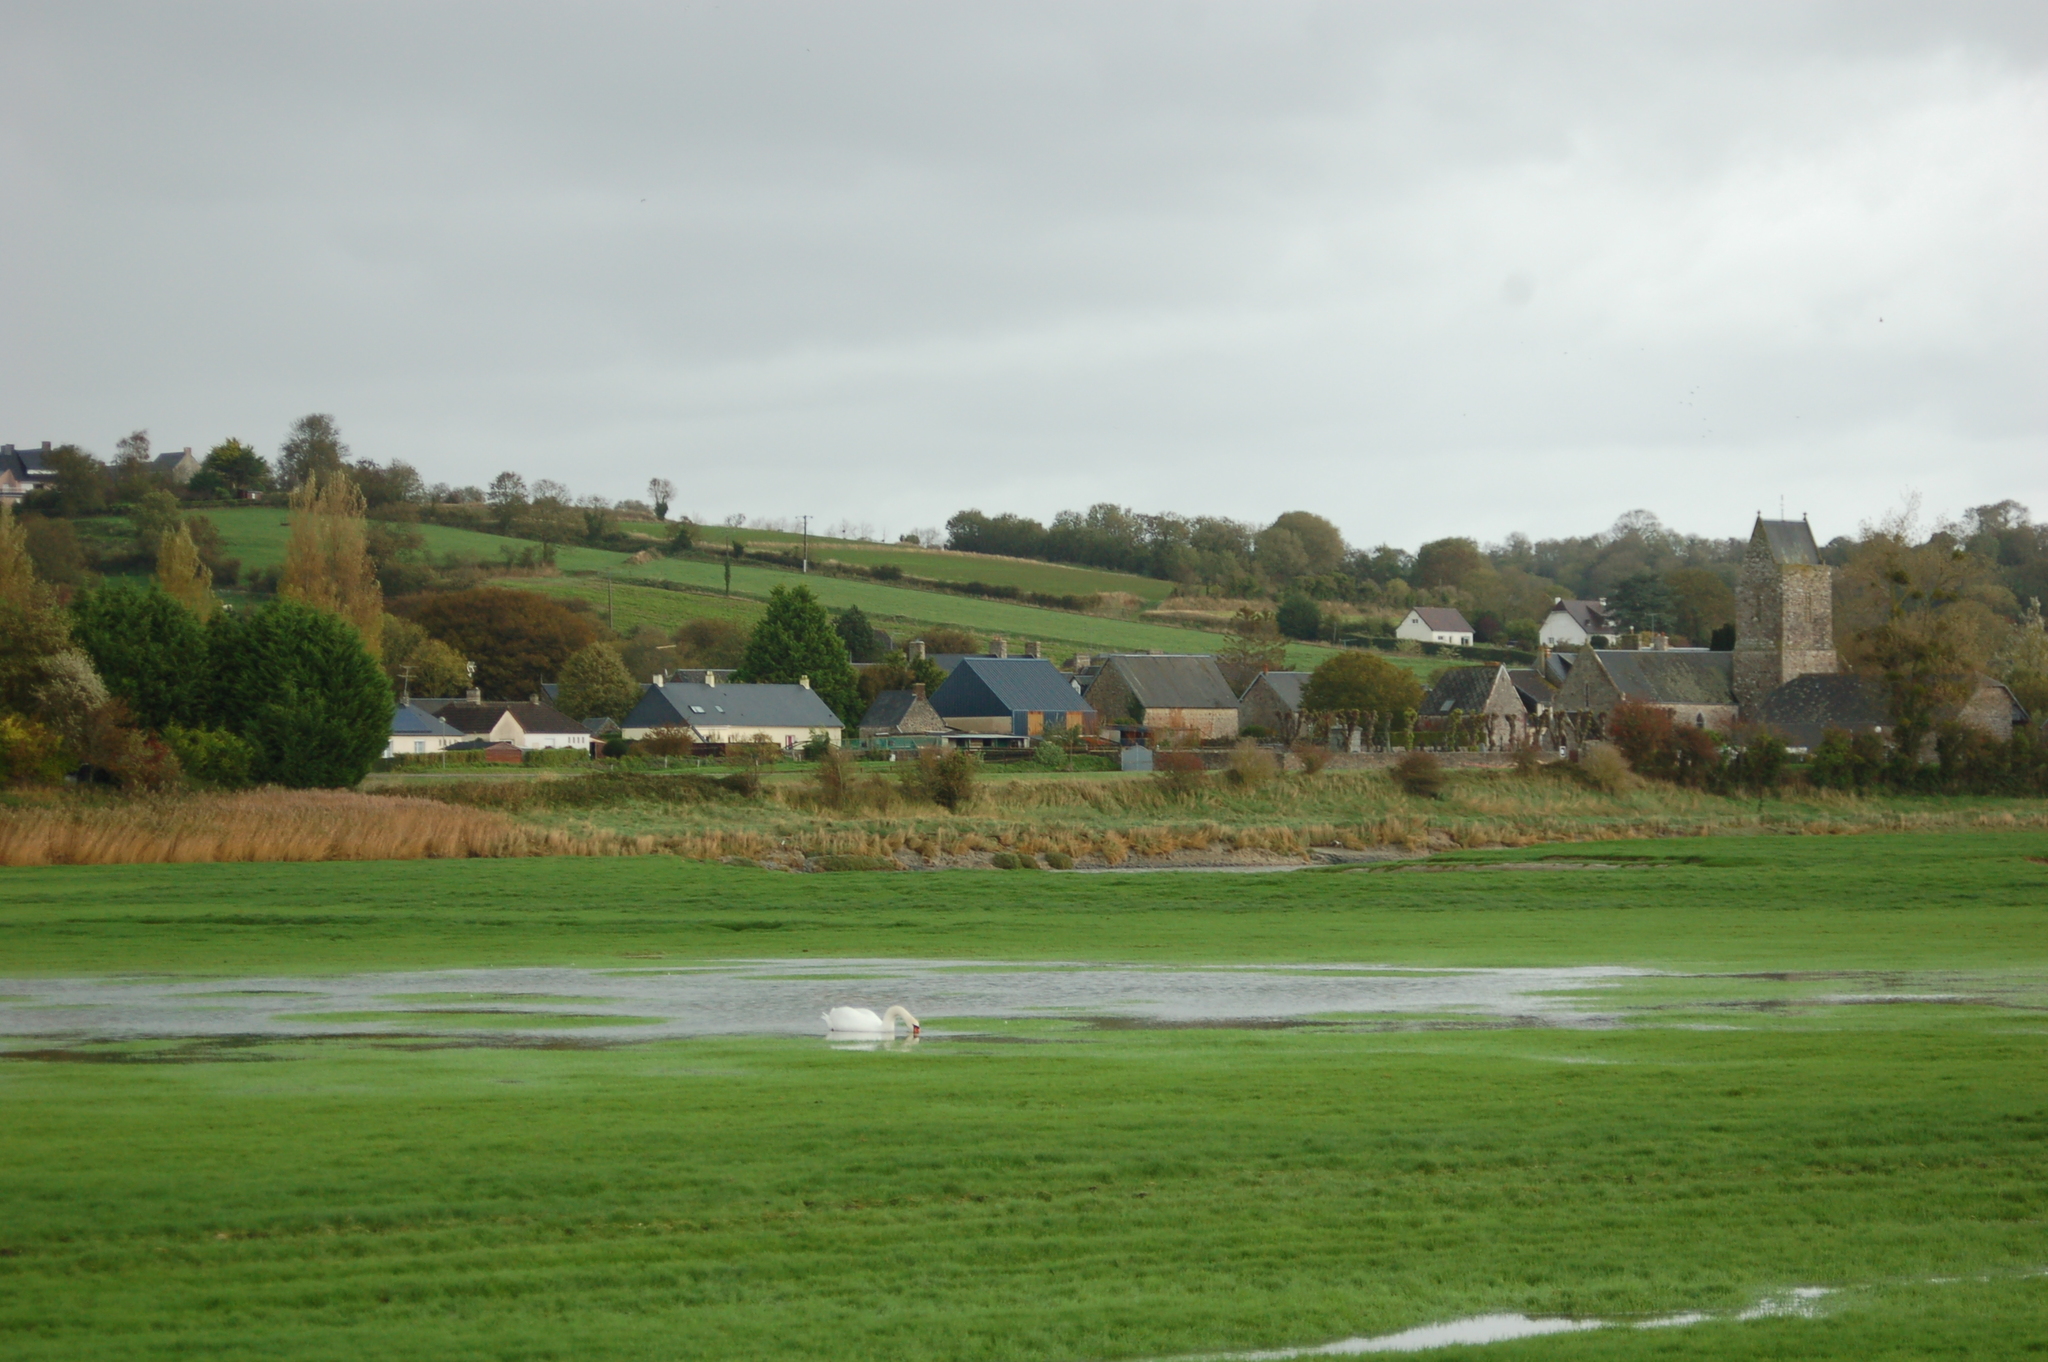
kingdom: Animalia
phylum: Chordata
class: Aves
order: Anseriformes
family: Anatidae
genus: Cygnus
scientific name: Cygnus olor
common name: Mute swan
